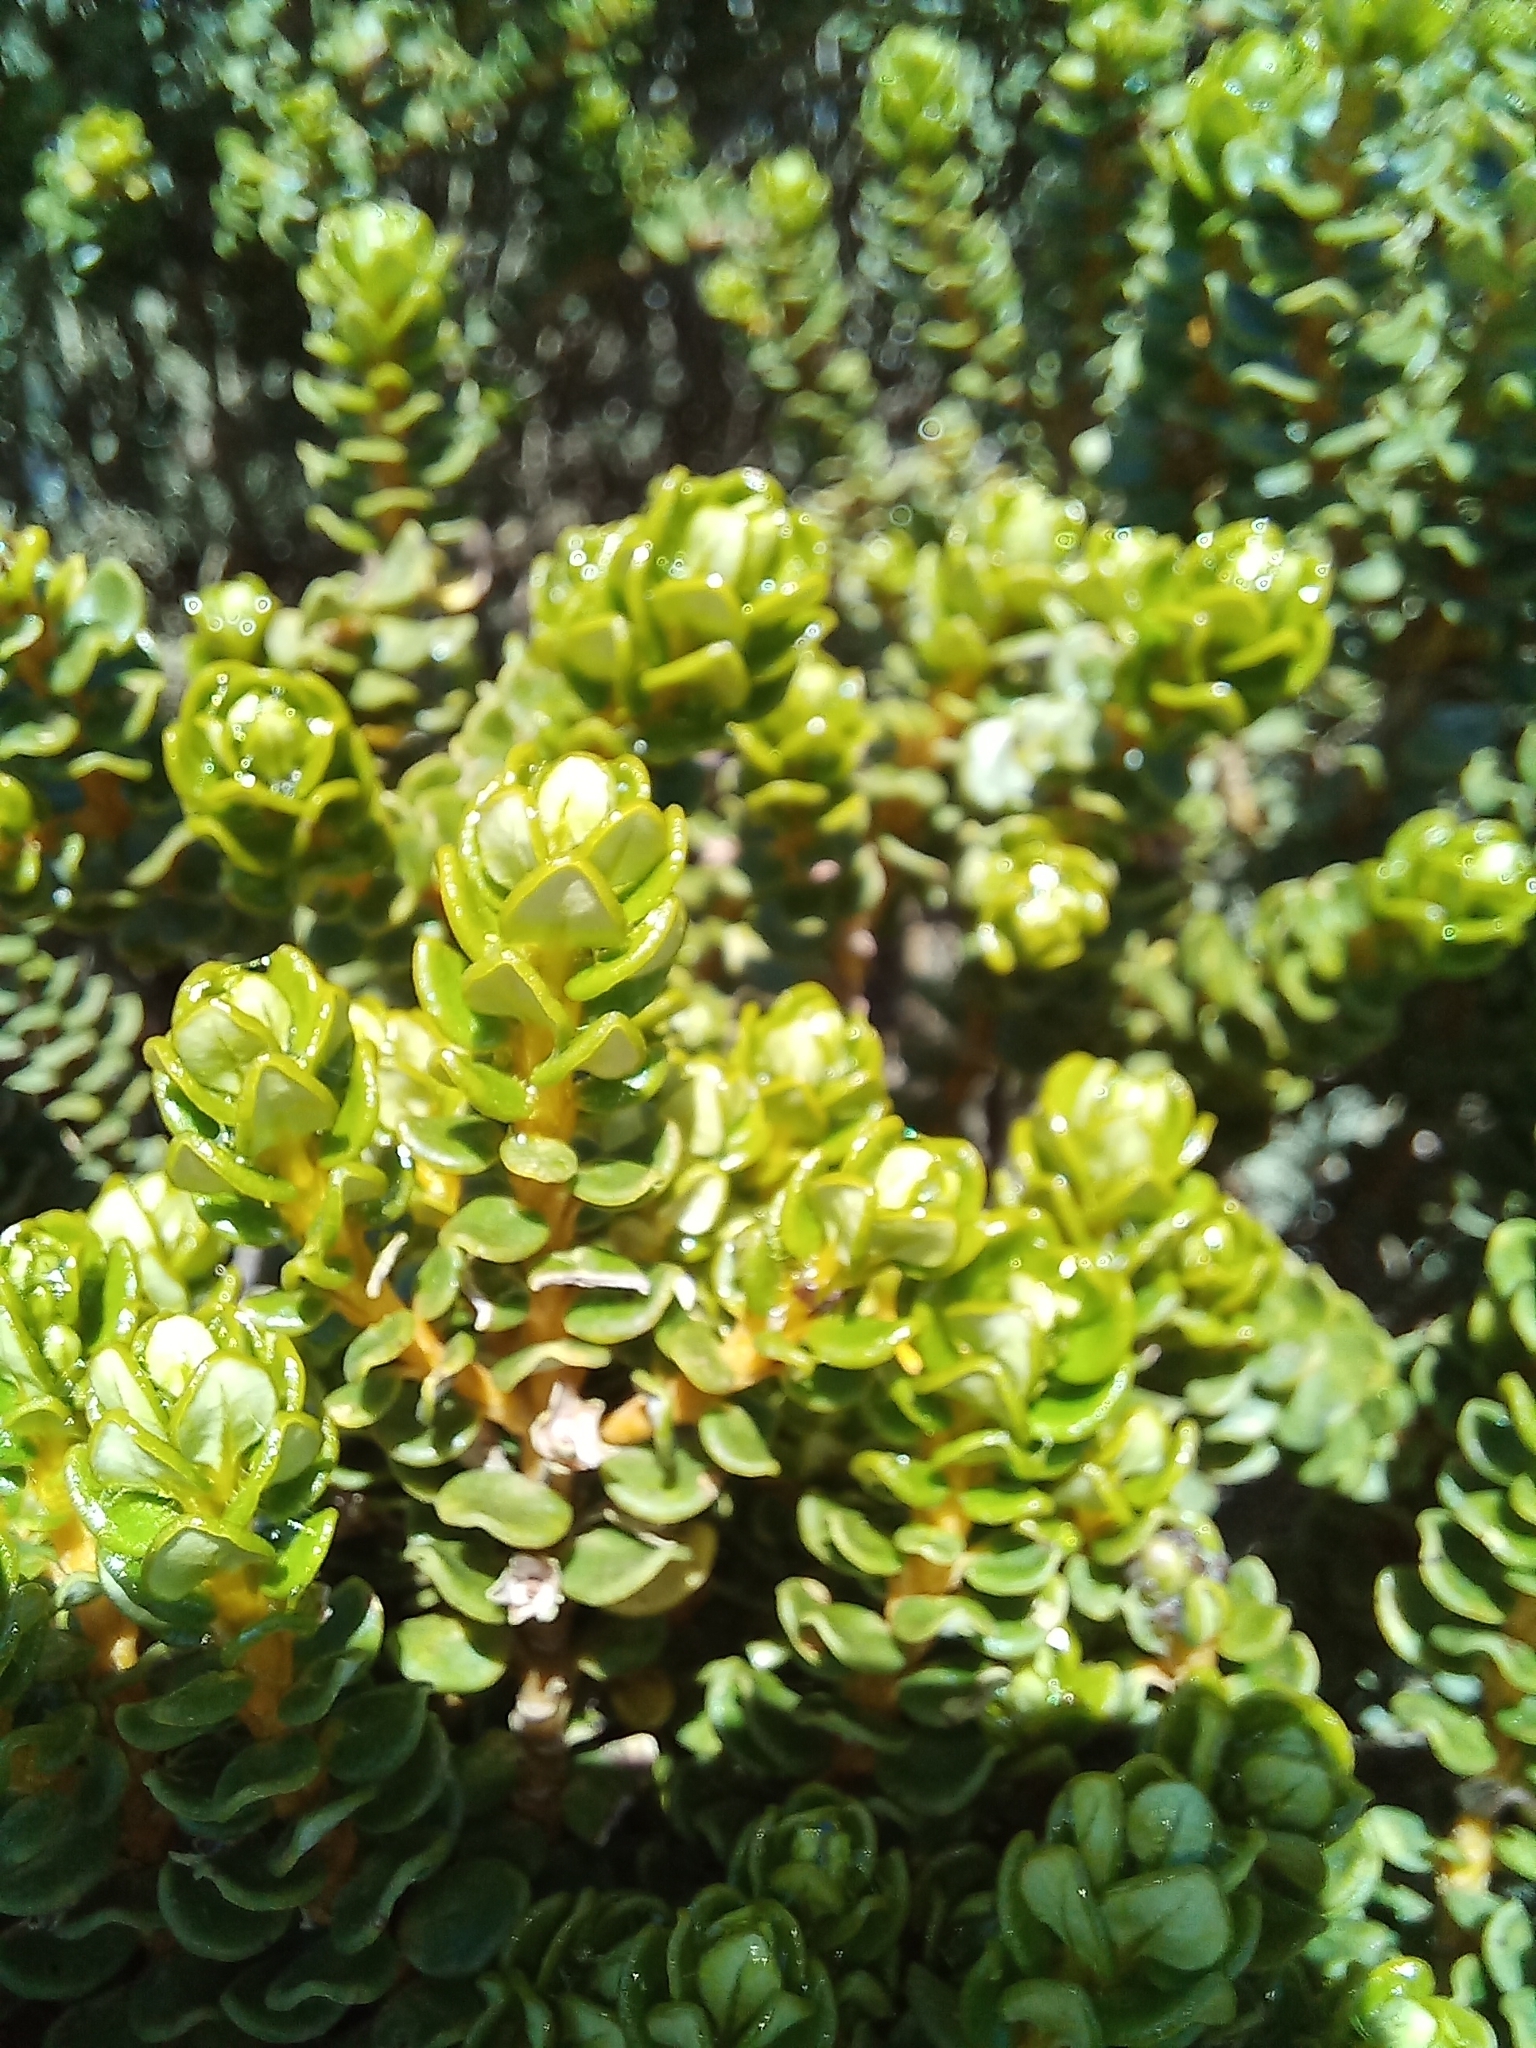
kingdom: Plantae
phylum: Tracheophyta
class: Magnoliopsida
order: Asterales
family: Asteraceae
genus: Olearia
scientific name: Olearia nummularifolia
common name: Sticky daisybush
